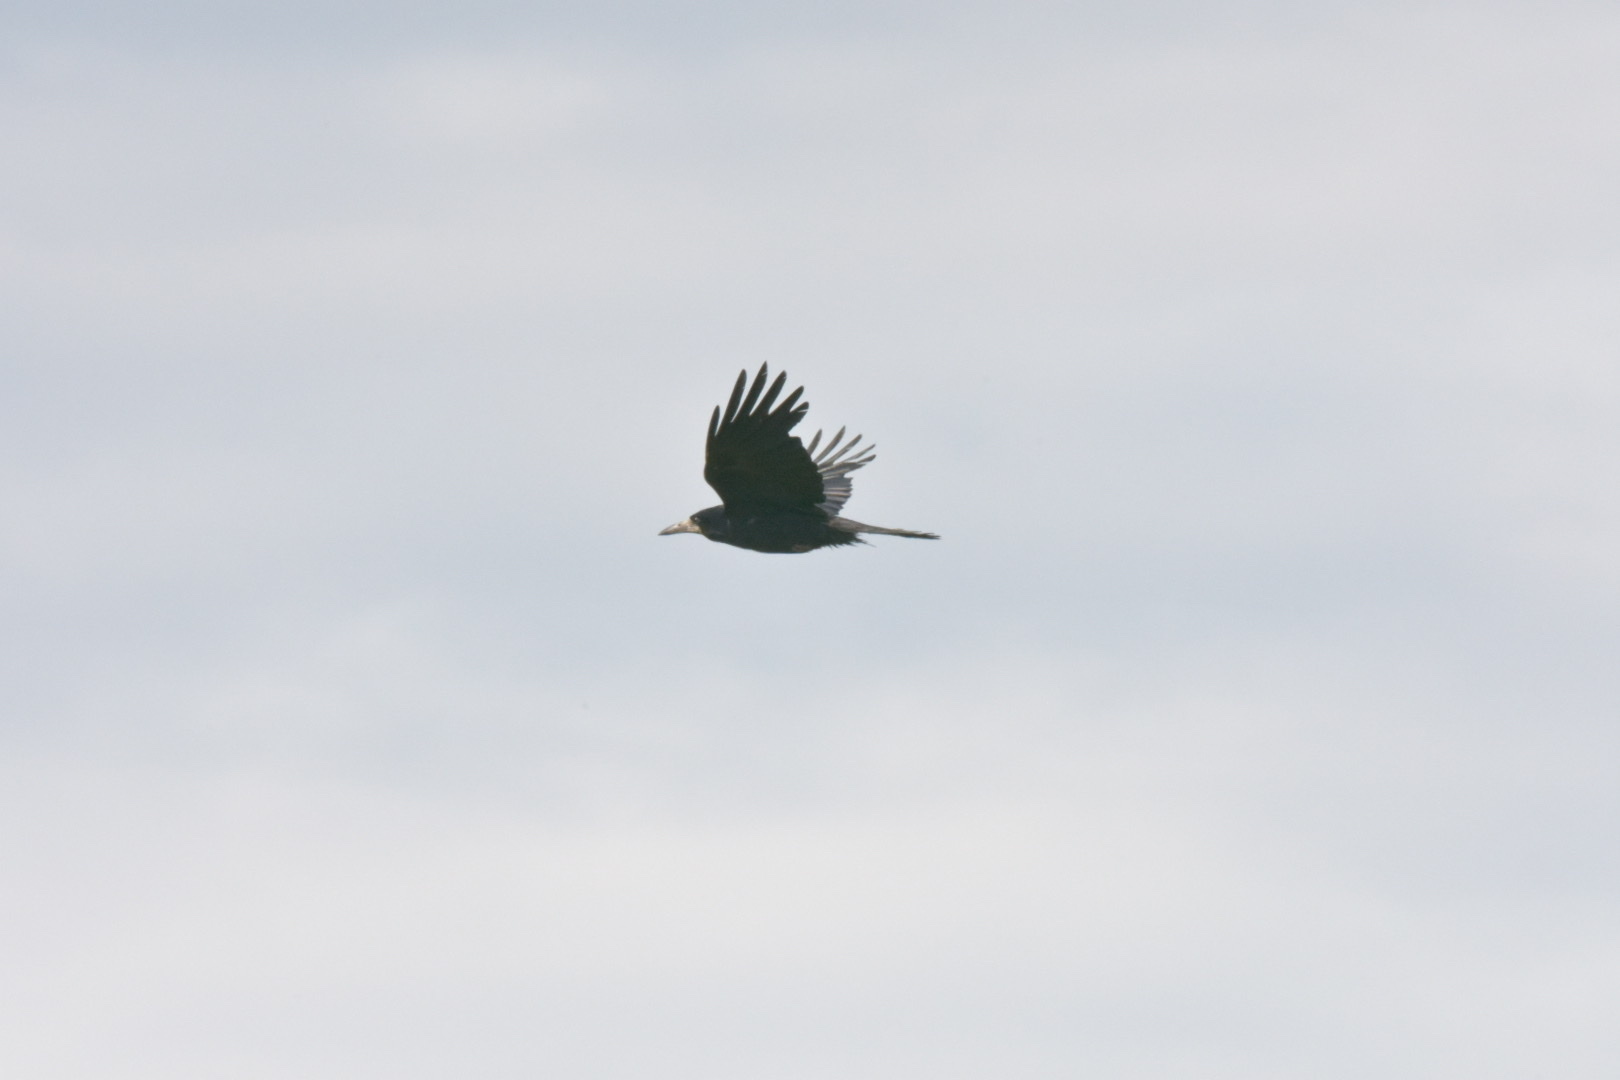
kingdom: Animalia
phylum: Chordata
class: Aves
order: Passeriformes
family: Corvidae
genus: Corvus
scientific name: Corvus frugilegus
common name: Rook
